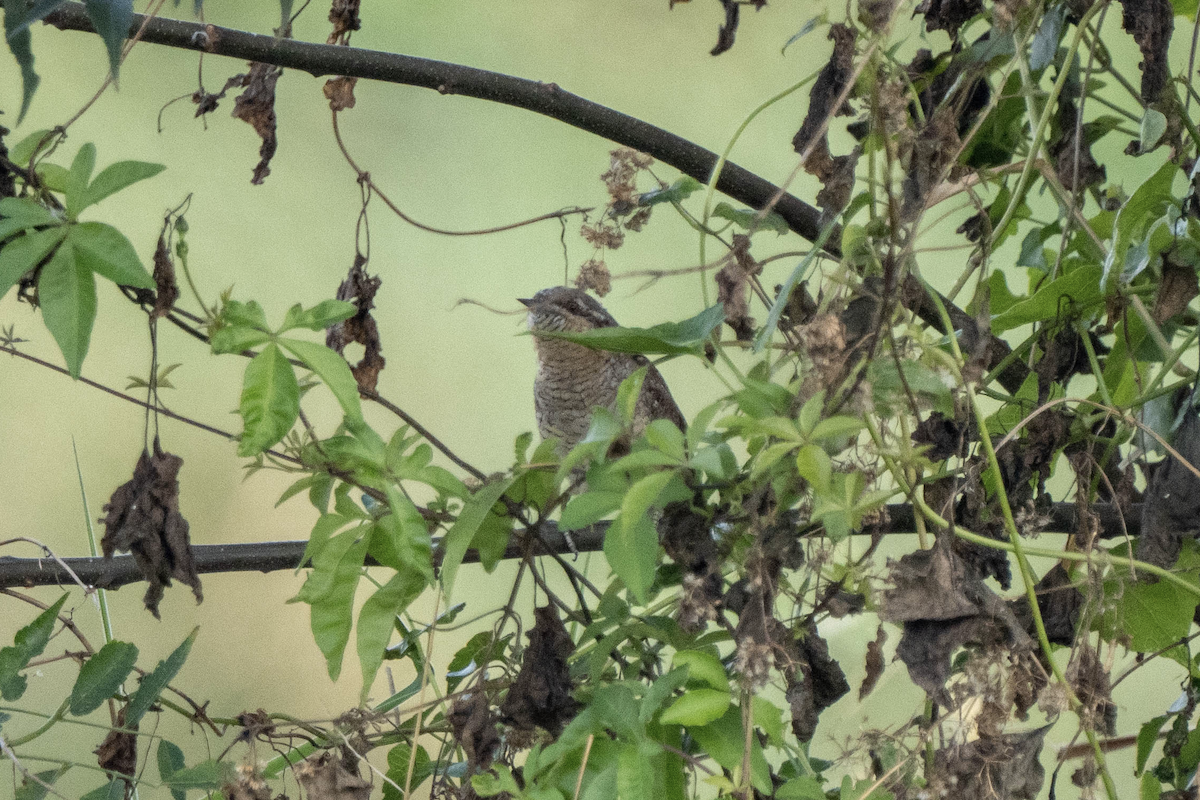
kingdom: Animalia
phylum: Chordata
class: Aves
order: Piciformes
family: Picidae
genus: Jynx
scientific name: Jynx torquilla
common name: Eurasian wryneck
